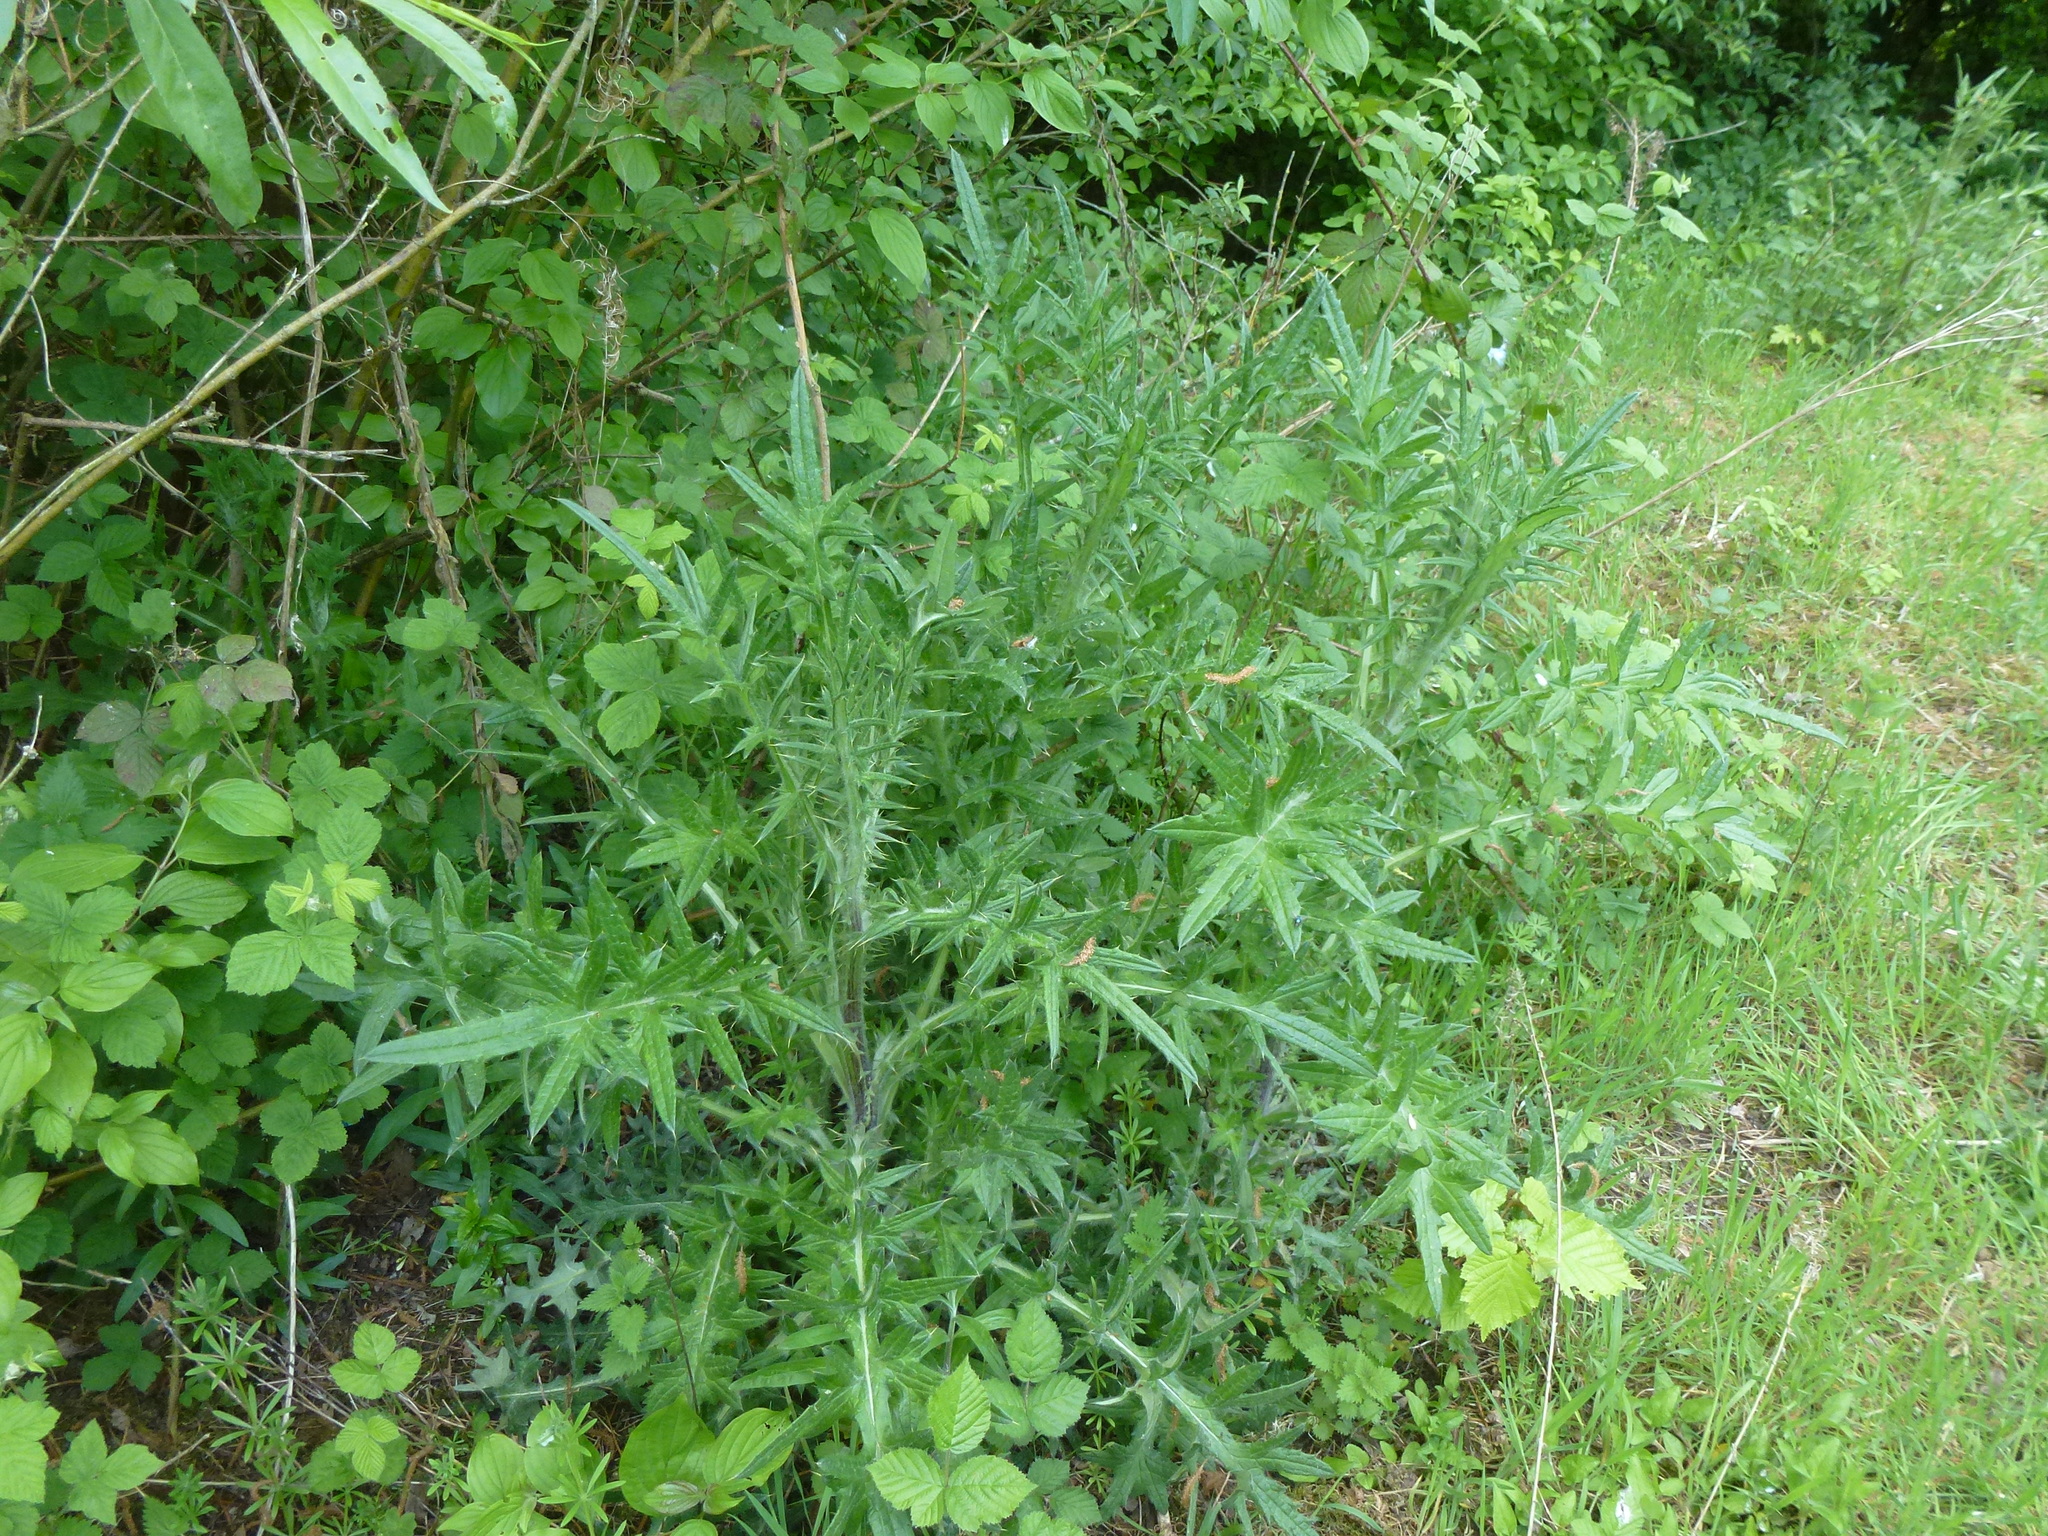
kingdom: Plantae
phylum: Tracheophyta
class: Magnoliopsida
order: Asterales
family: Asteraceae
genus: Cirsium
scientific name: Cirsium vulgare
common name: Bull thistle
